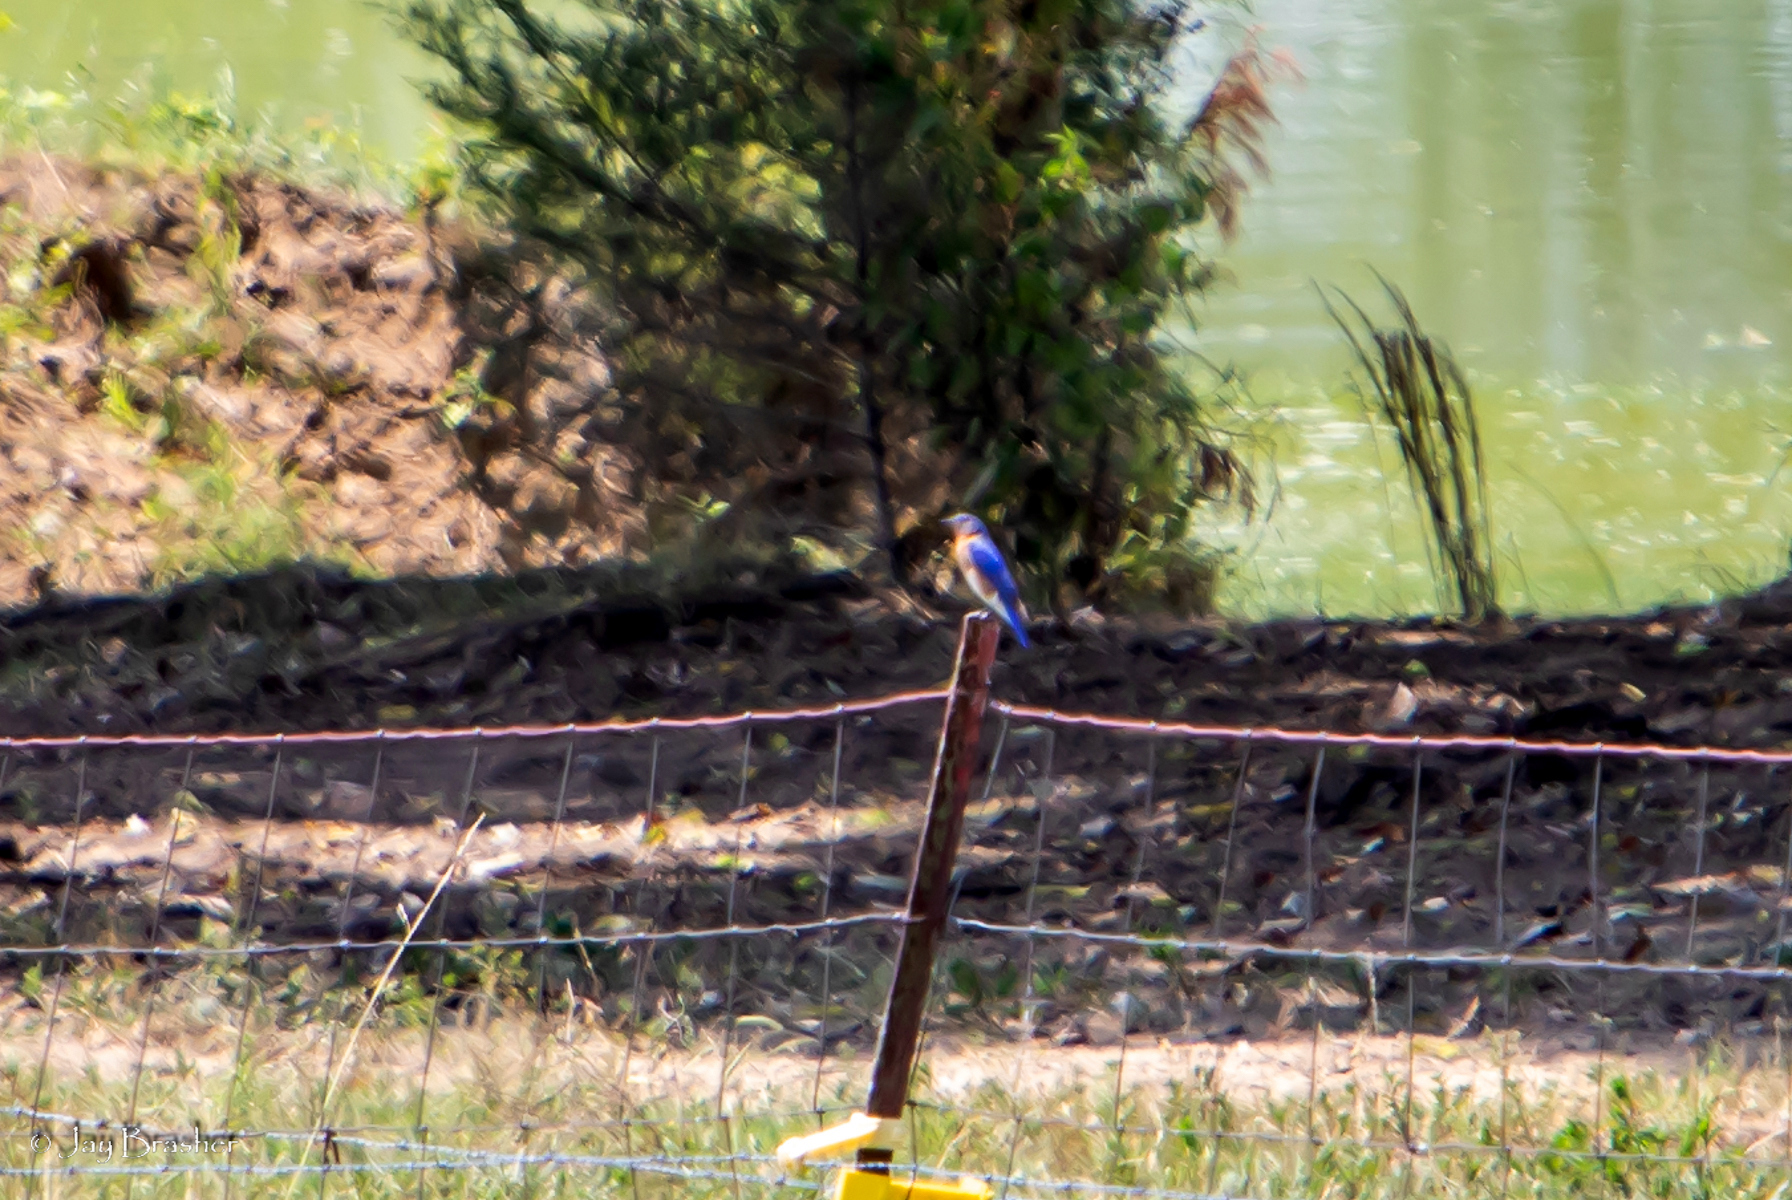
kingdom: Animalia
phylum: Chordata
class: Aves
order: Passeriformes
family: Turdidae
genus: Sialia
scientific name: Sialia sialis
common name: Eastern bluebird
